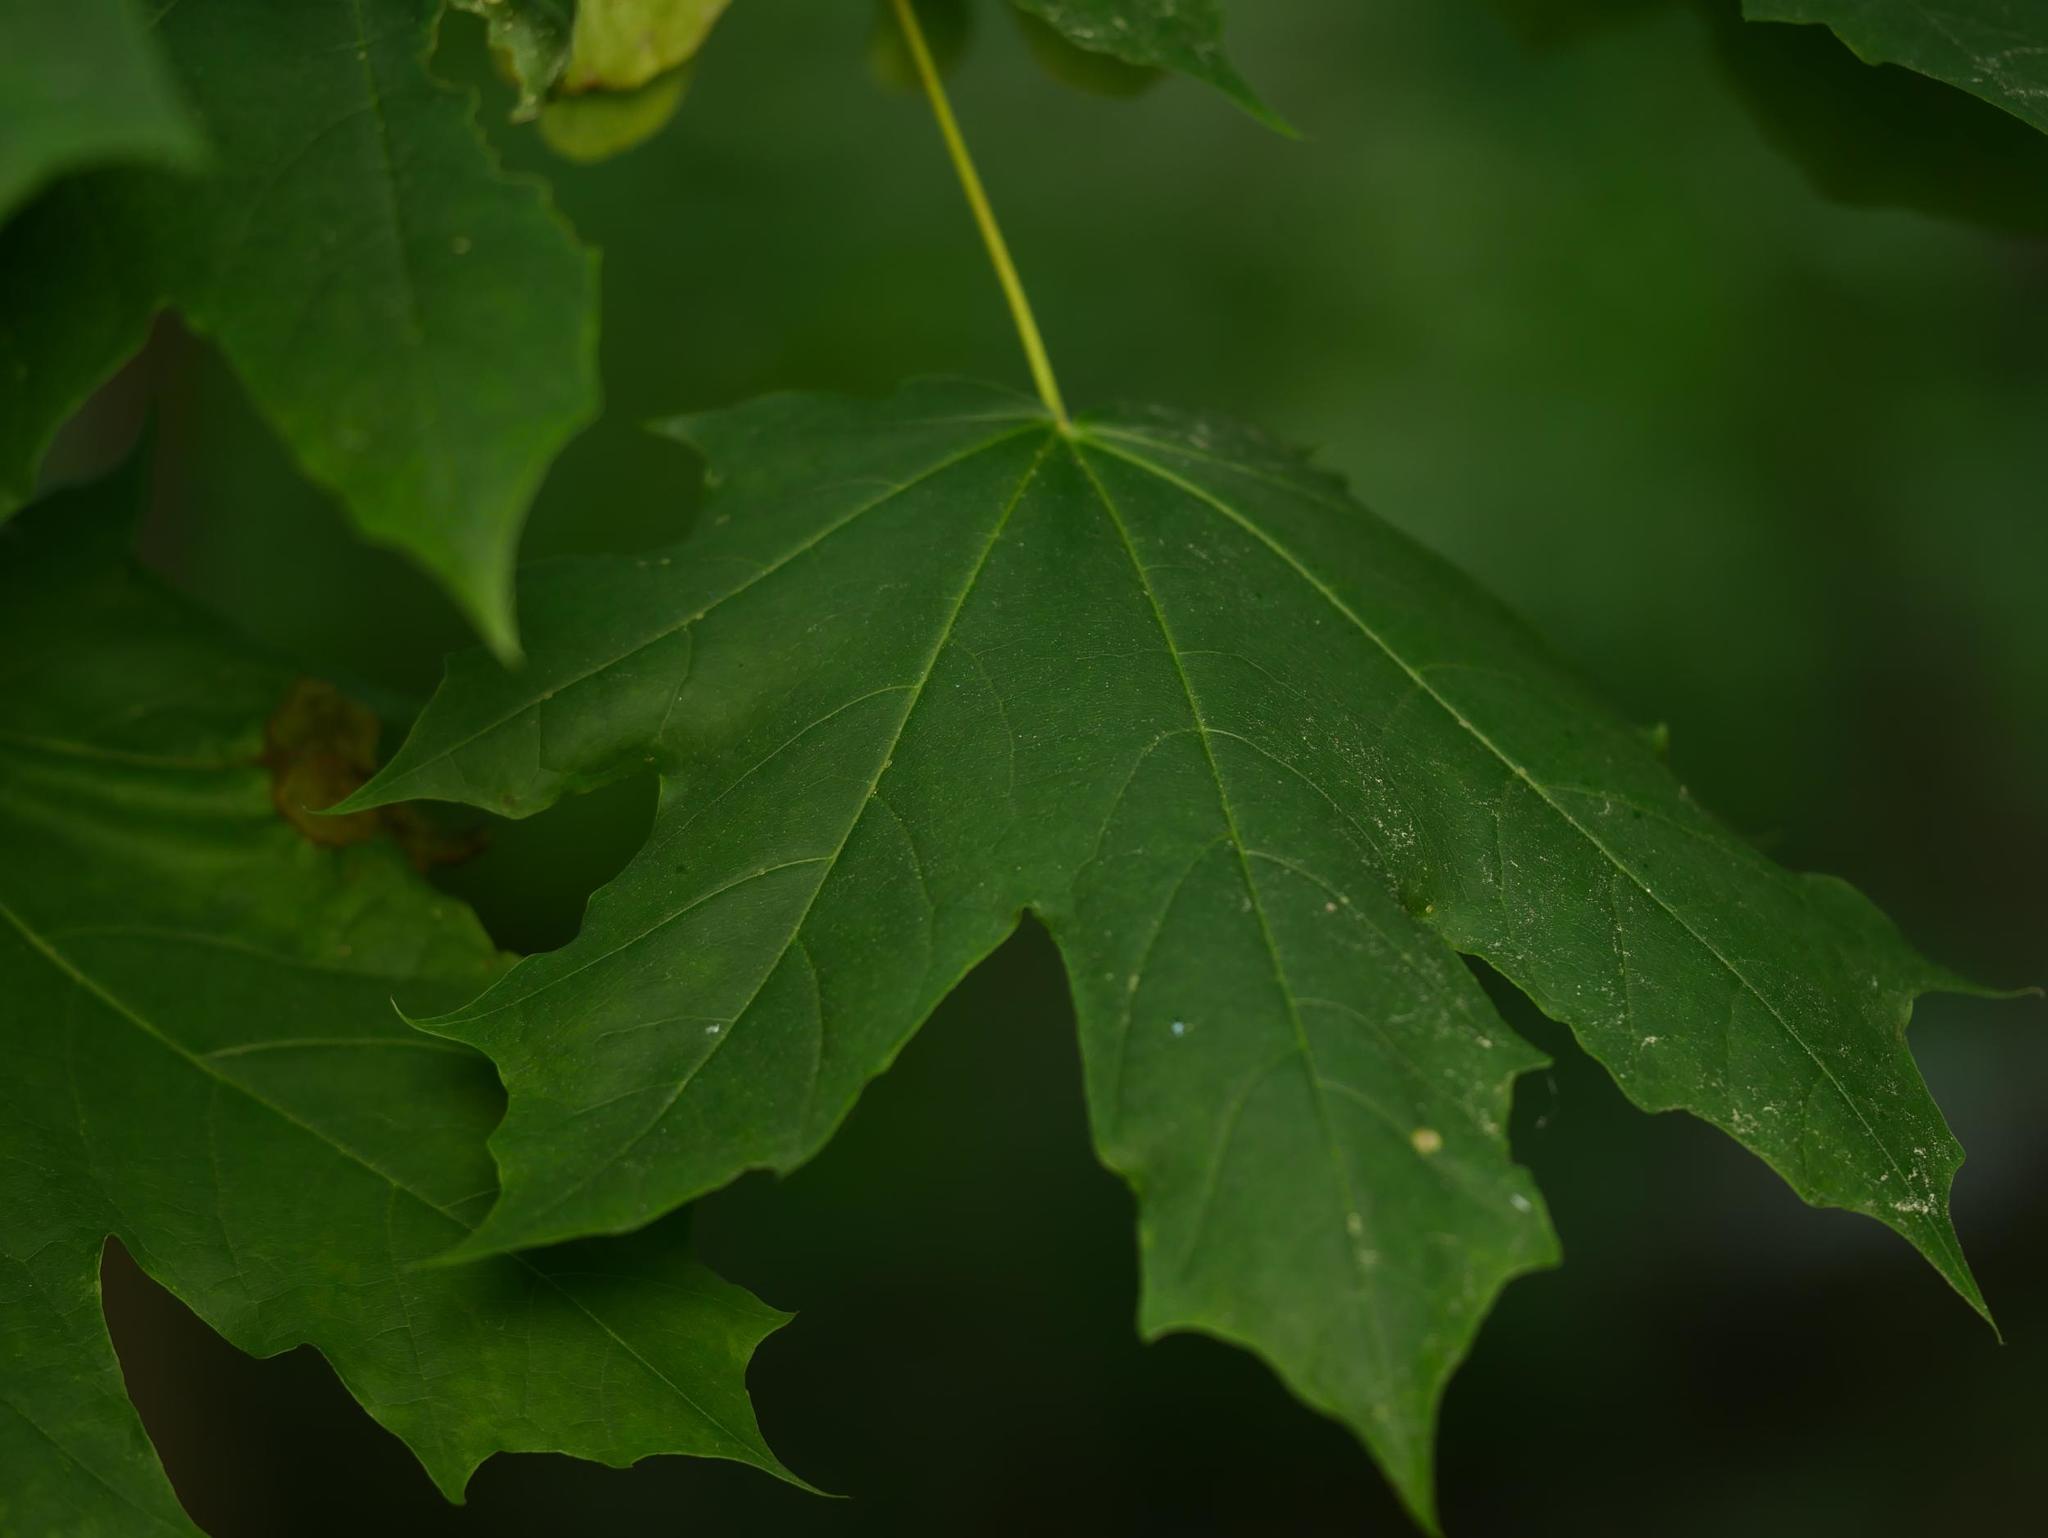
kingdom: Plantae
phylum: Tracheophyta
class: Magnoliopsida
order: Sapindales
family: Sapindaceae
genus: Acer
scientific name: Acer platanoides
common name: Norway maple
